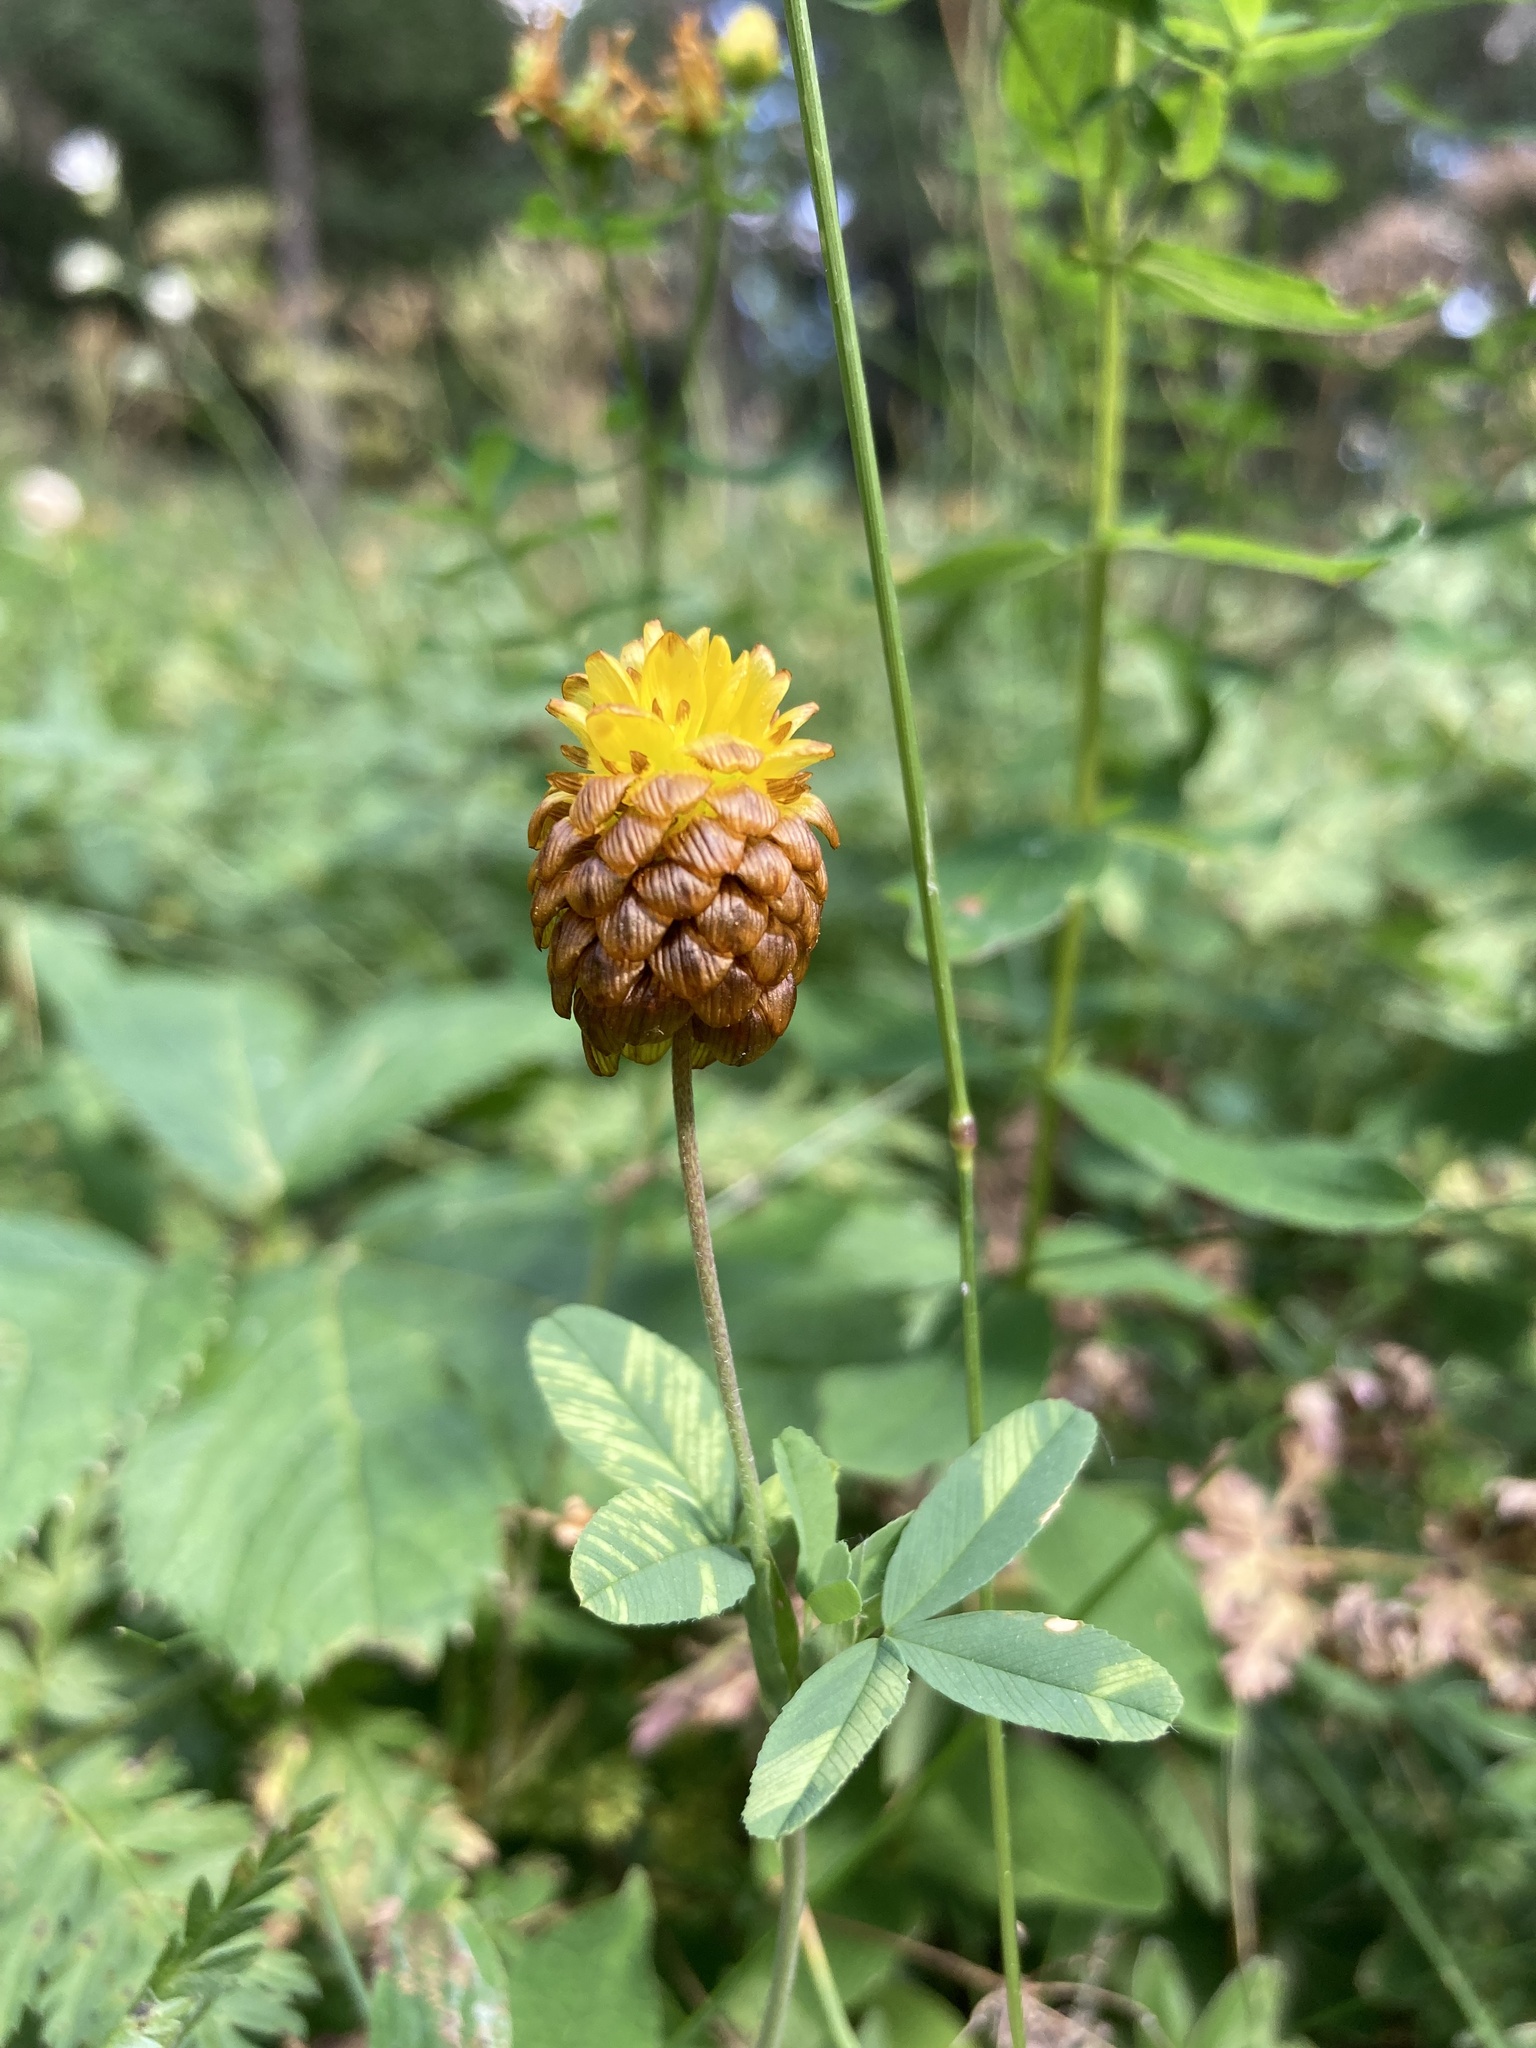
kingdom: Plantae
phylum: Tracheophyta
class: Magnoliopsida
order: Fabales
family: Fabaceae
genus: Trifolium
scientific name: Trifolium badium
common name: Brown clover
